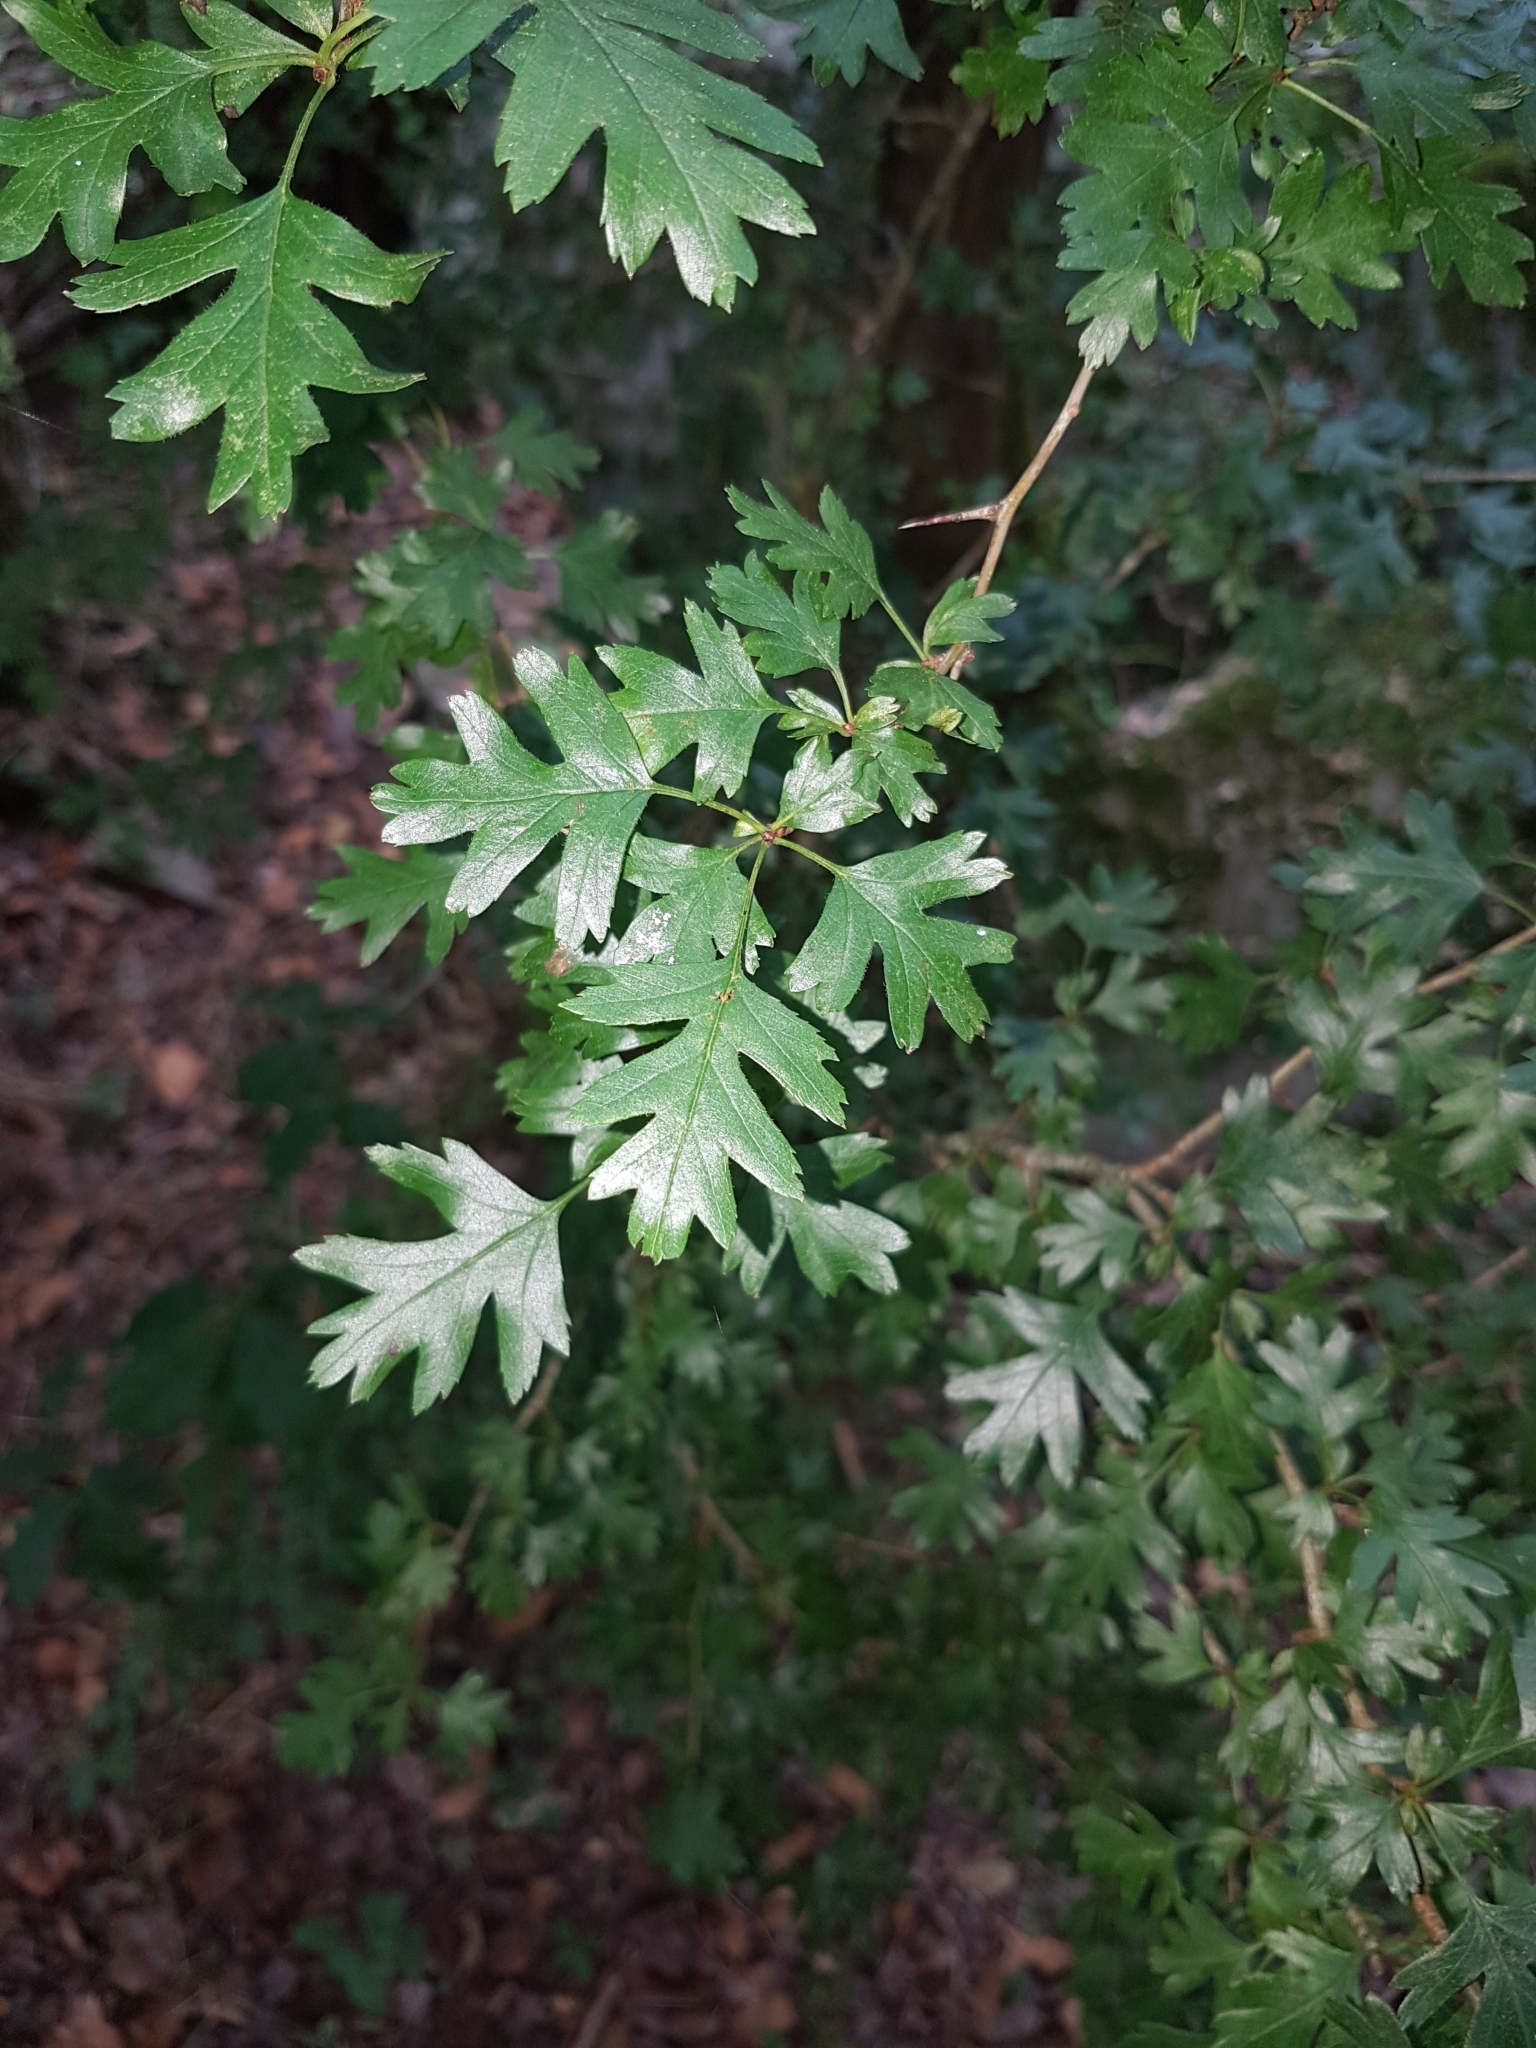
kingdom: Plantae
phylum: Tracheophyta
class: Magnoliopsida
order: Rosales
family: Rosaceae
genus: Crataegus
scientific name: Crataegus monogyna
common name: Hawthorn
